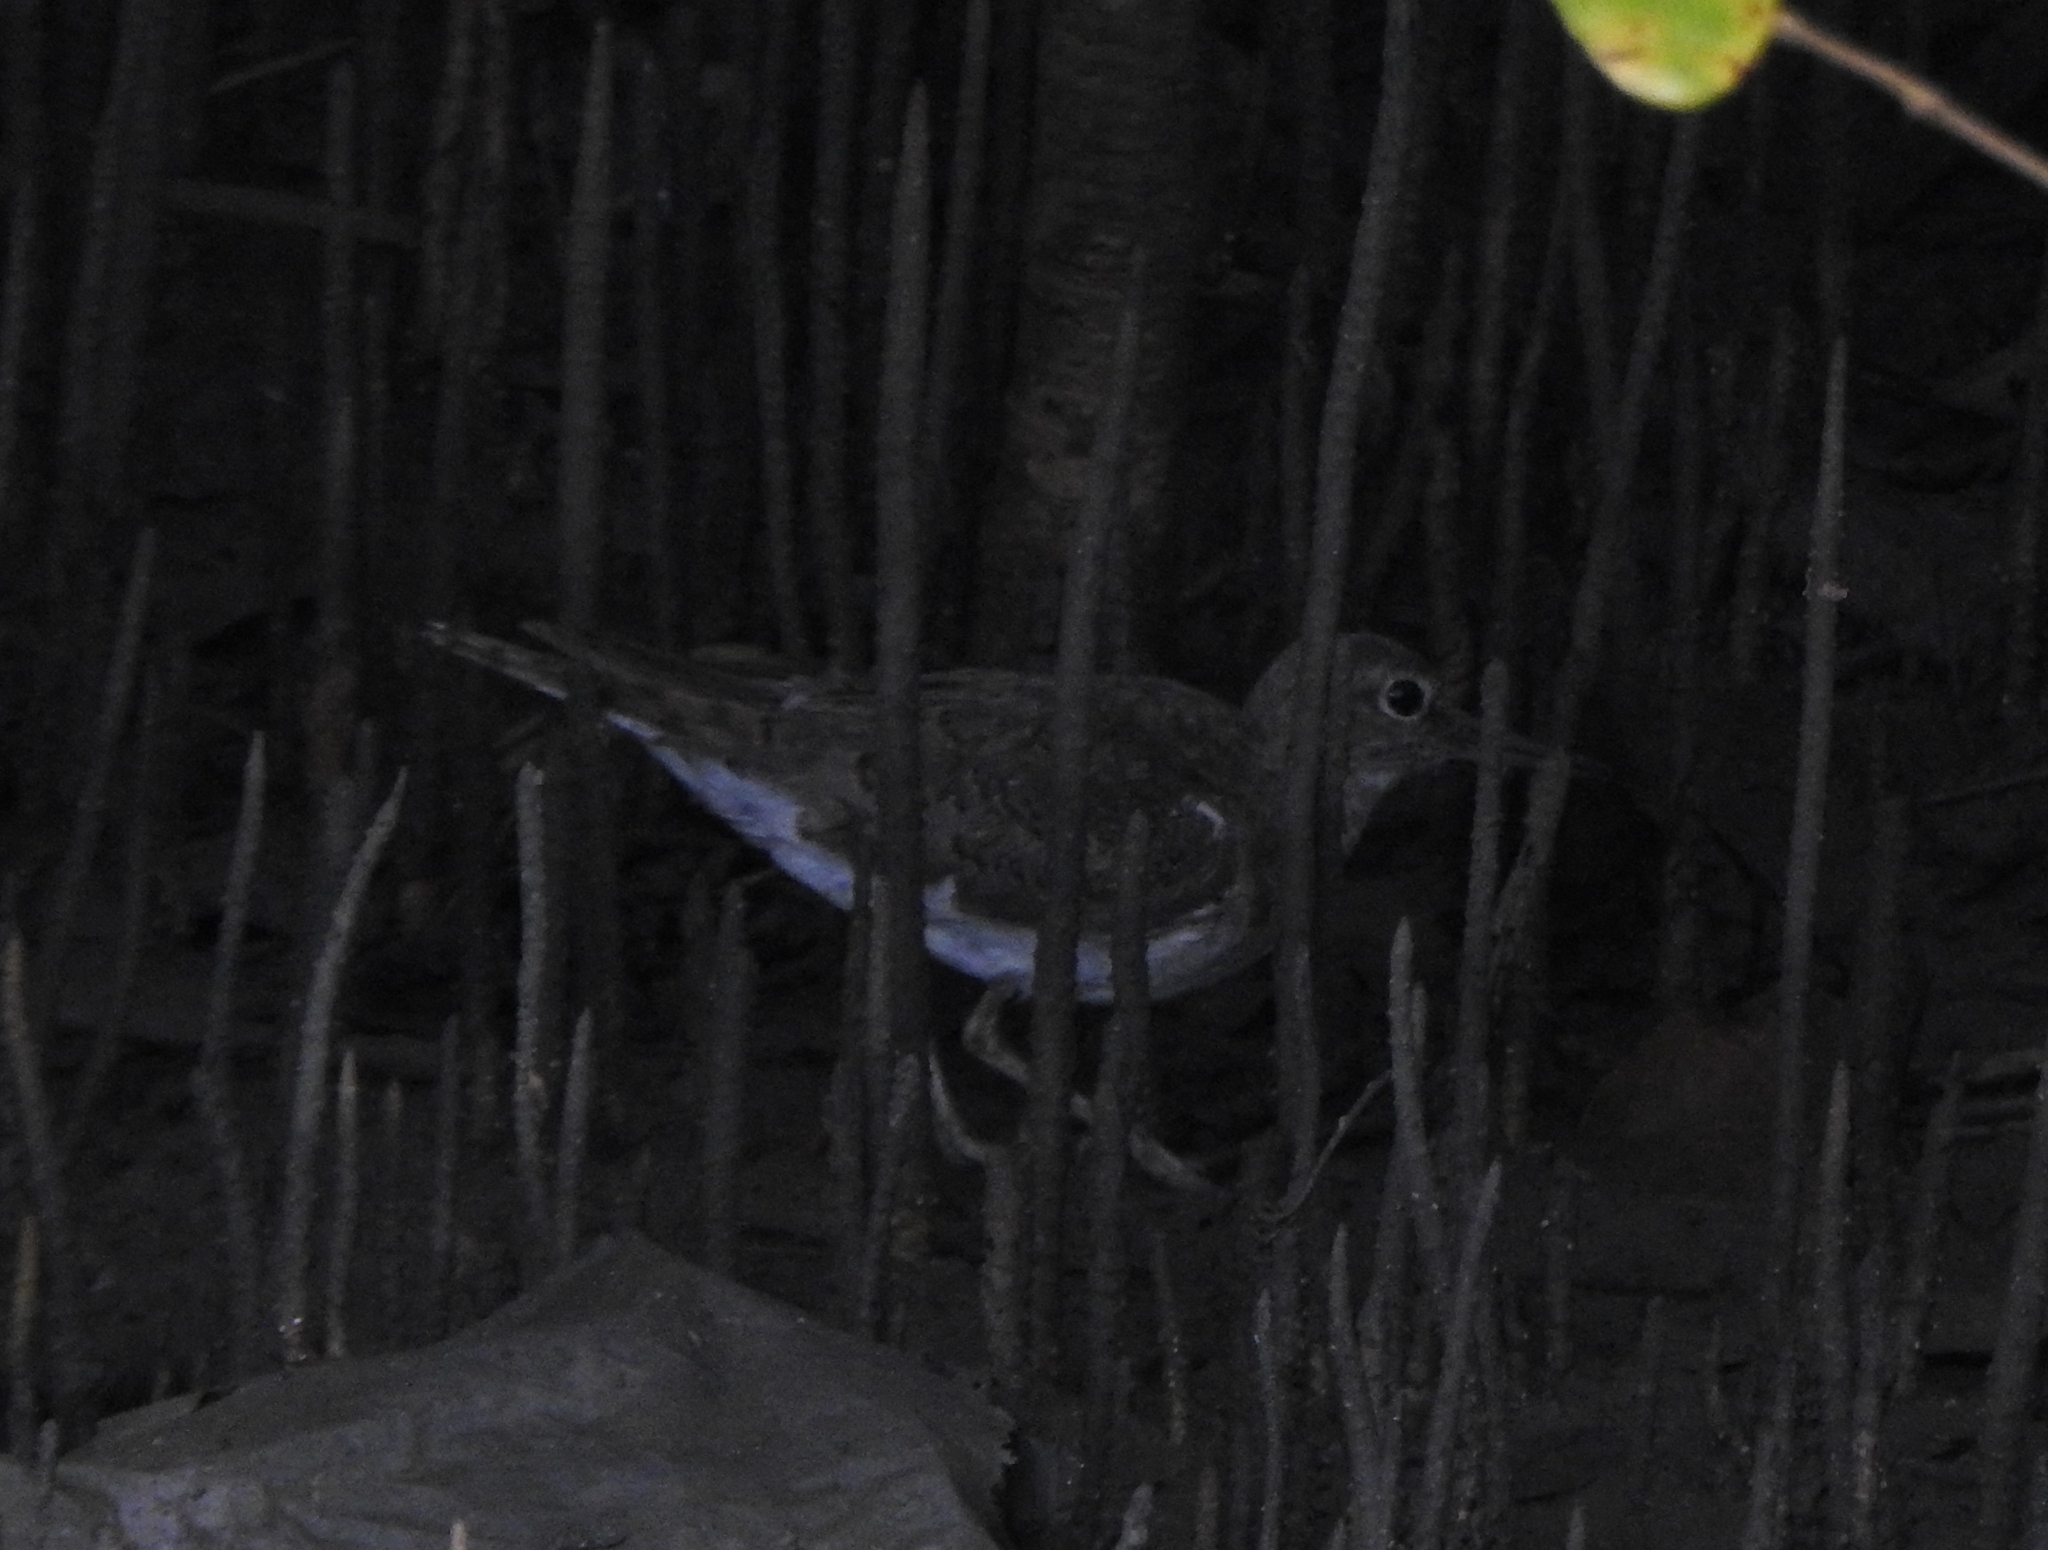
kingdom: Animalia
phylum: Chordata
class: Aves
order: Charadriiformes
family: Scolopacidae
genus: Actitis
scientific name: Actitis hypoleucos
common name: Common sandpiper
